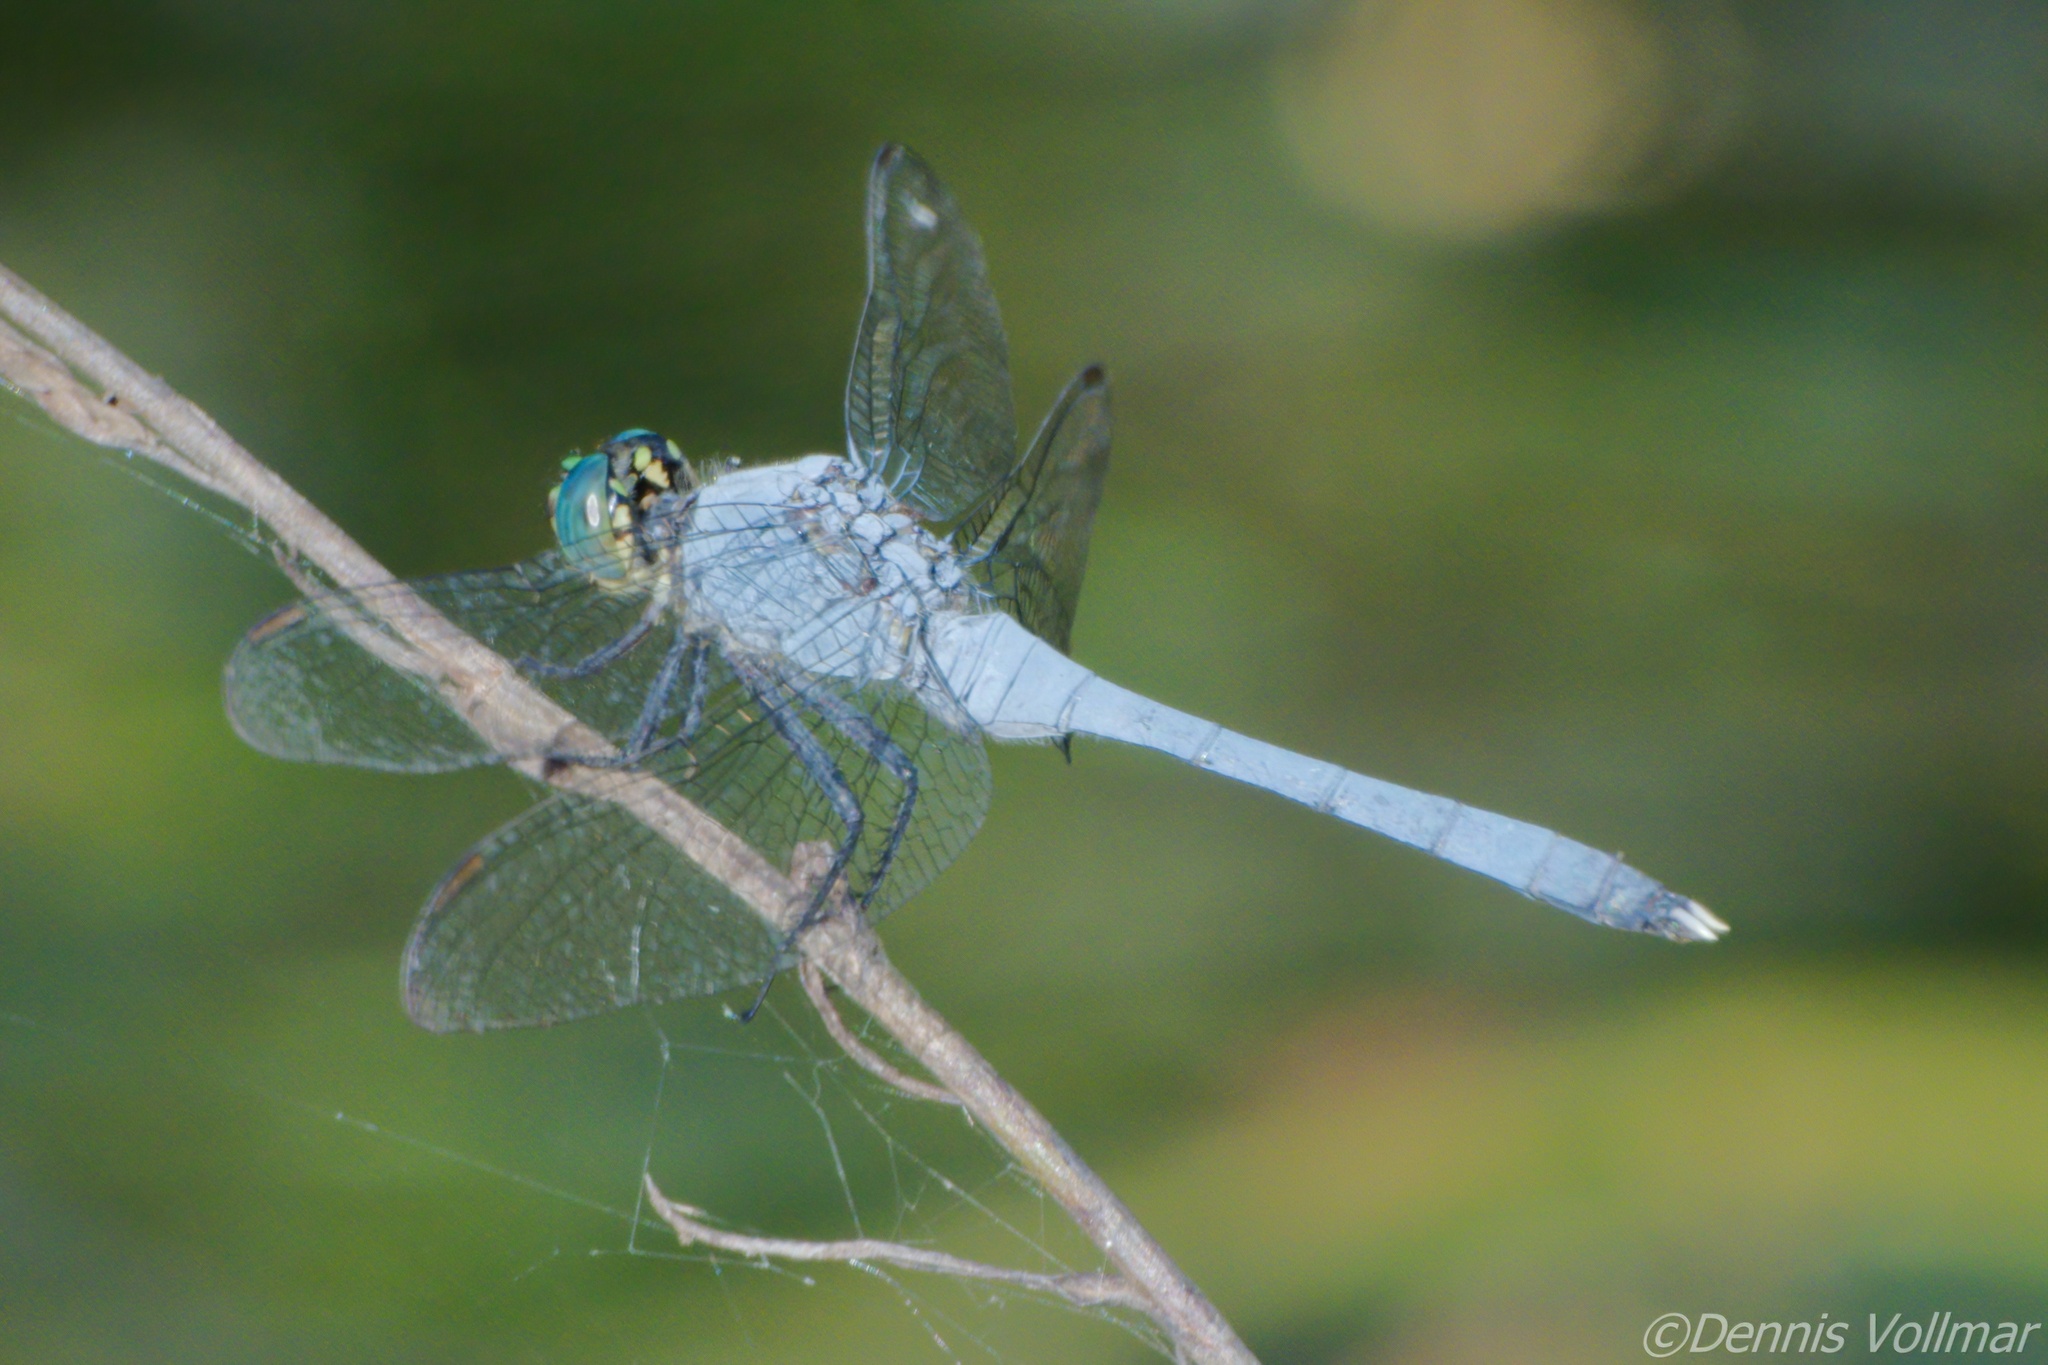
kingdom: Animalia
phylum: Arthropoda
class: Insecta
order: Odonata
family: Libellulidae
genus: Erythemis
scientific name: Erythemis simplicicollis
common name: Eastern pondhawk
